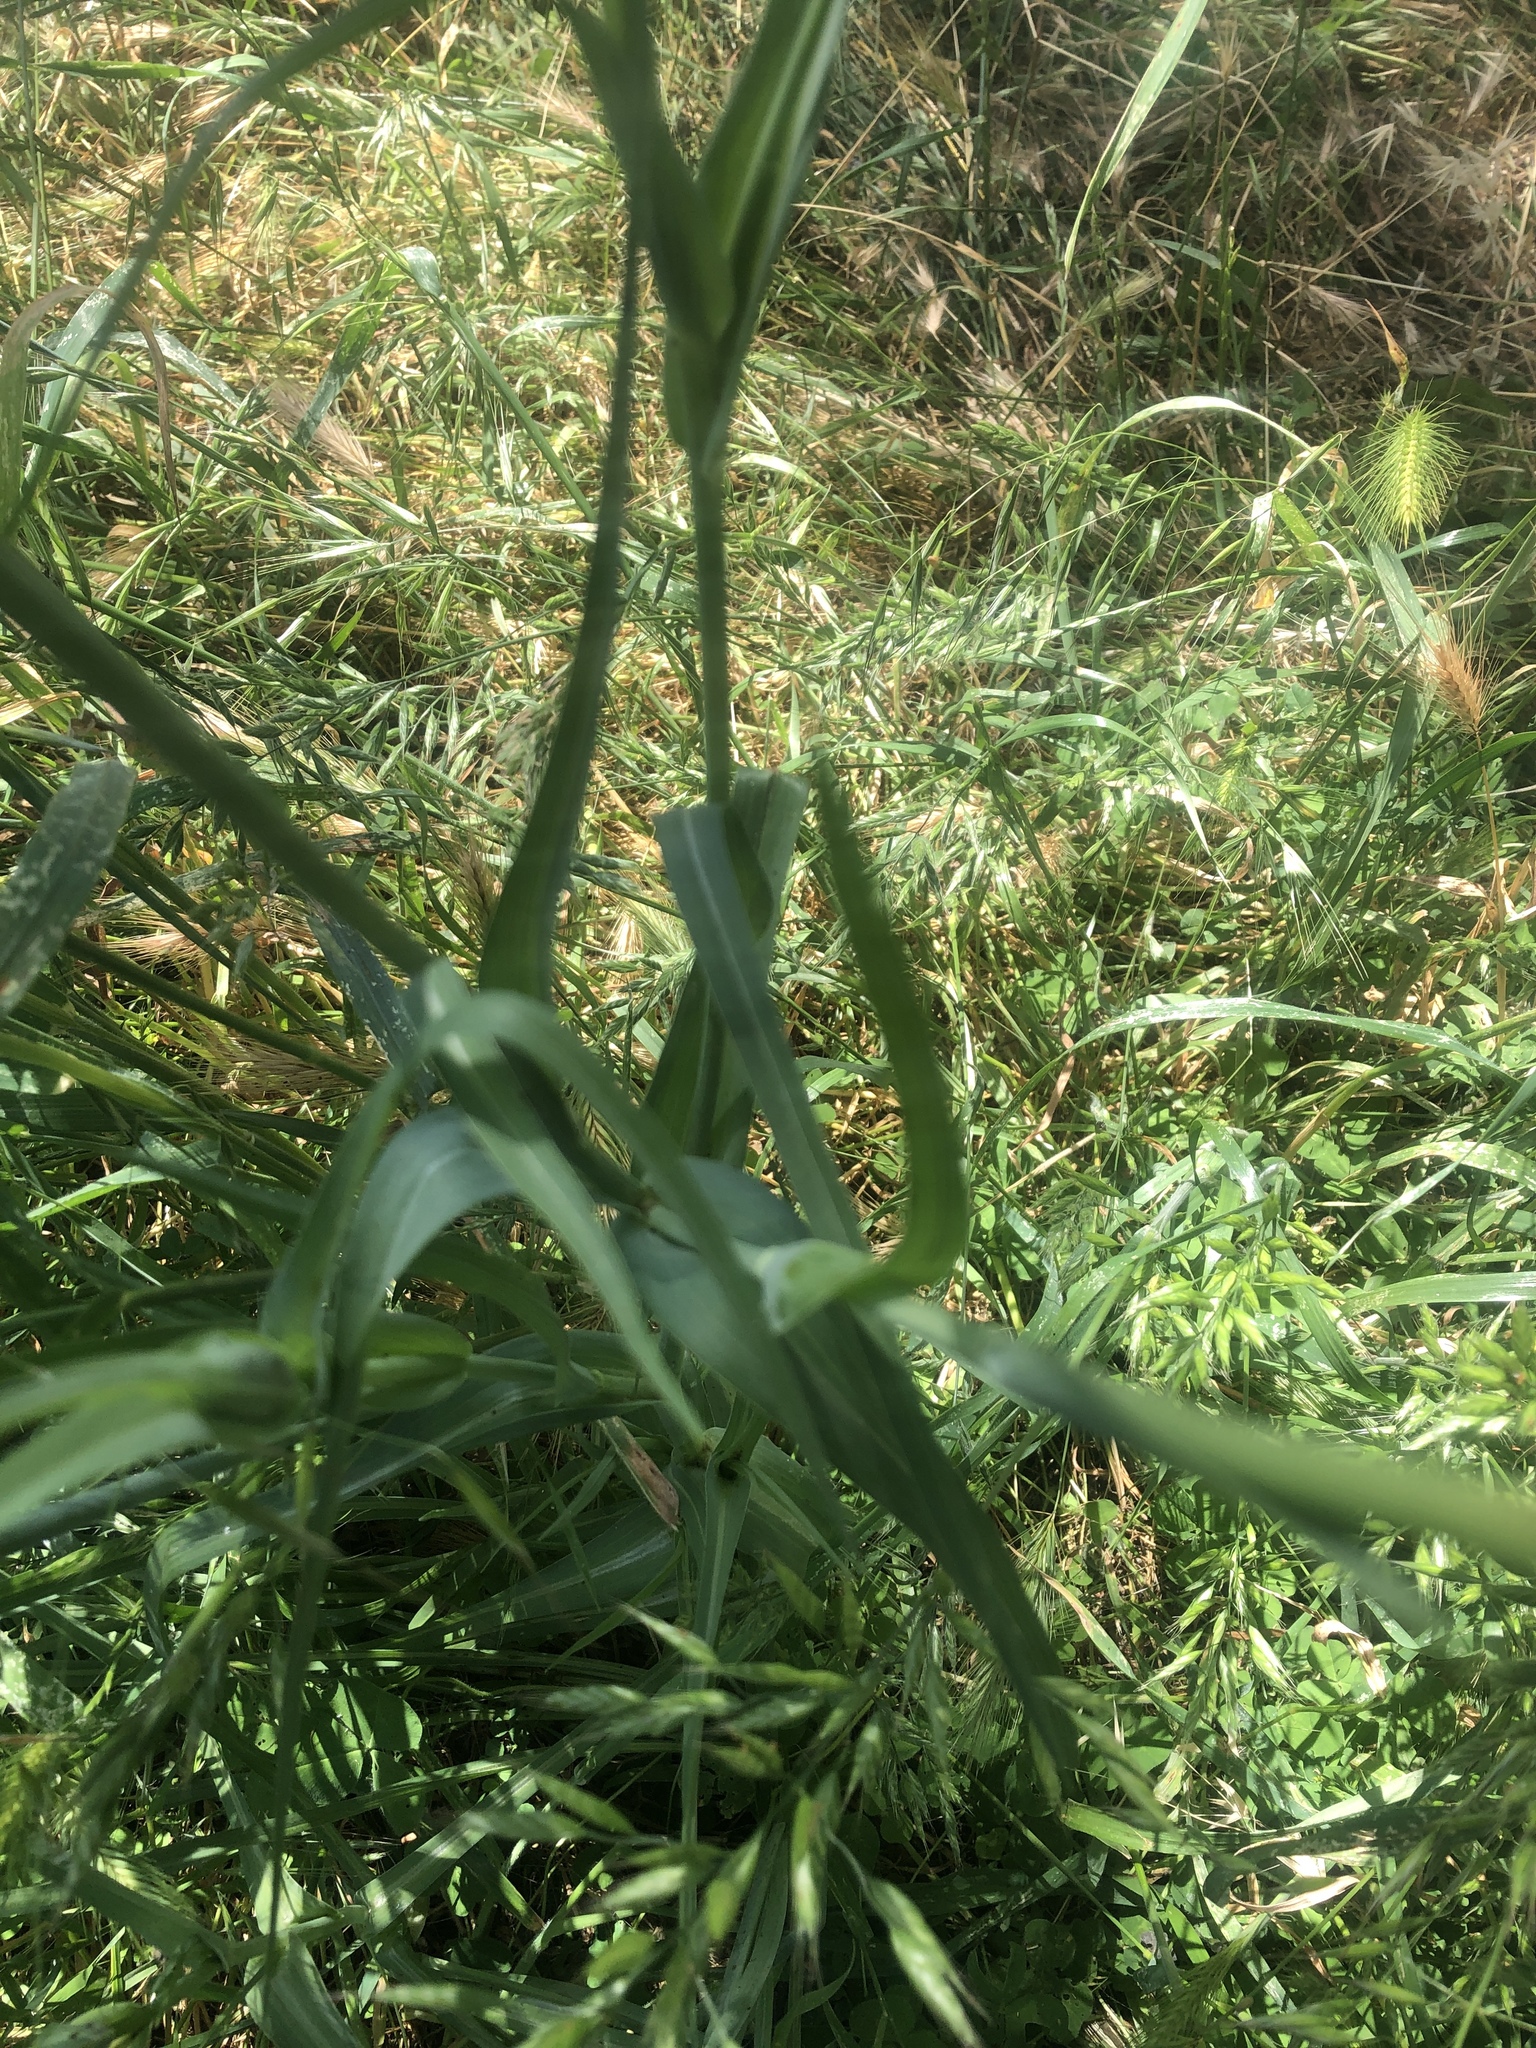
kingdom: Plantae
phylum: Tracheophyta
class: Magnoliopsida
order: Asterales
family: Asteraceae
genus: Tragopogon
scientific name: Tragopogon porrifolius
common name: Salsify
